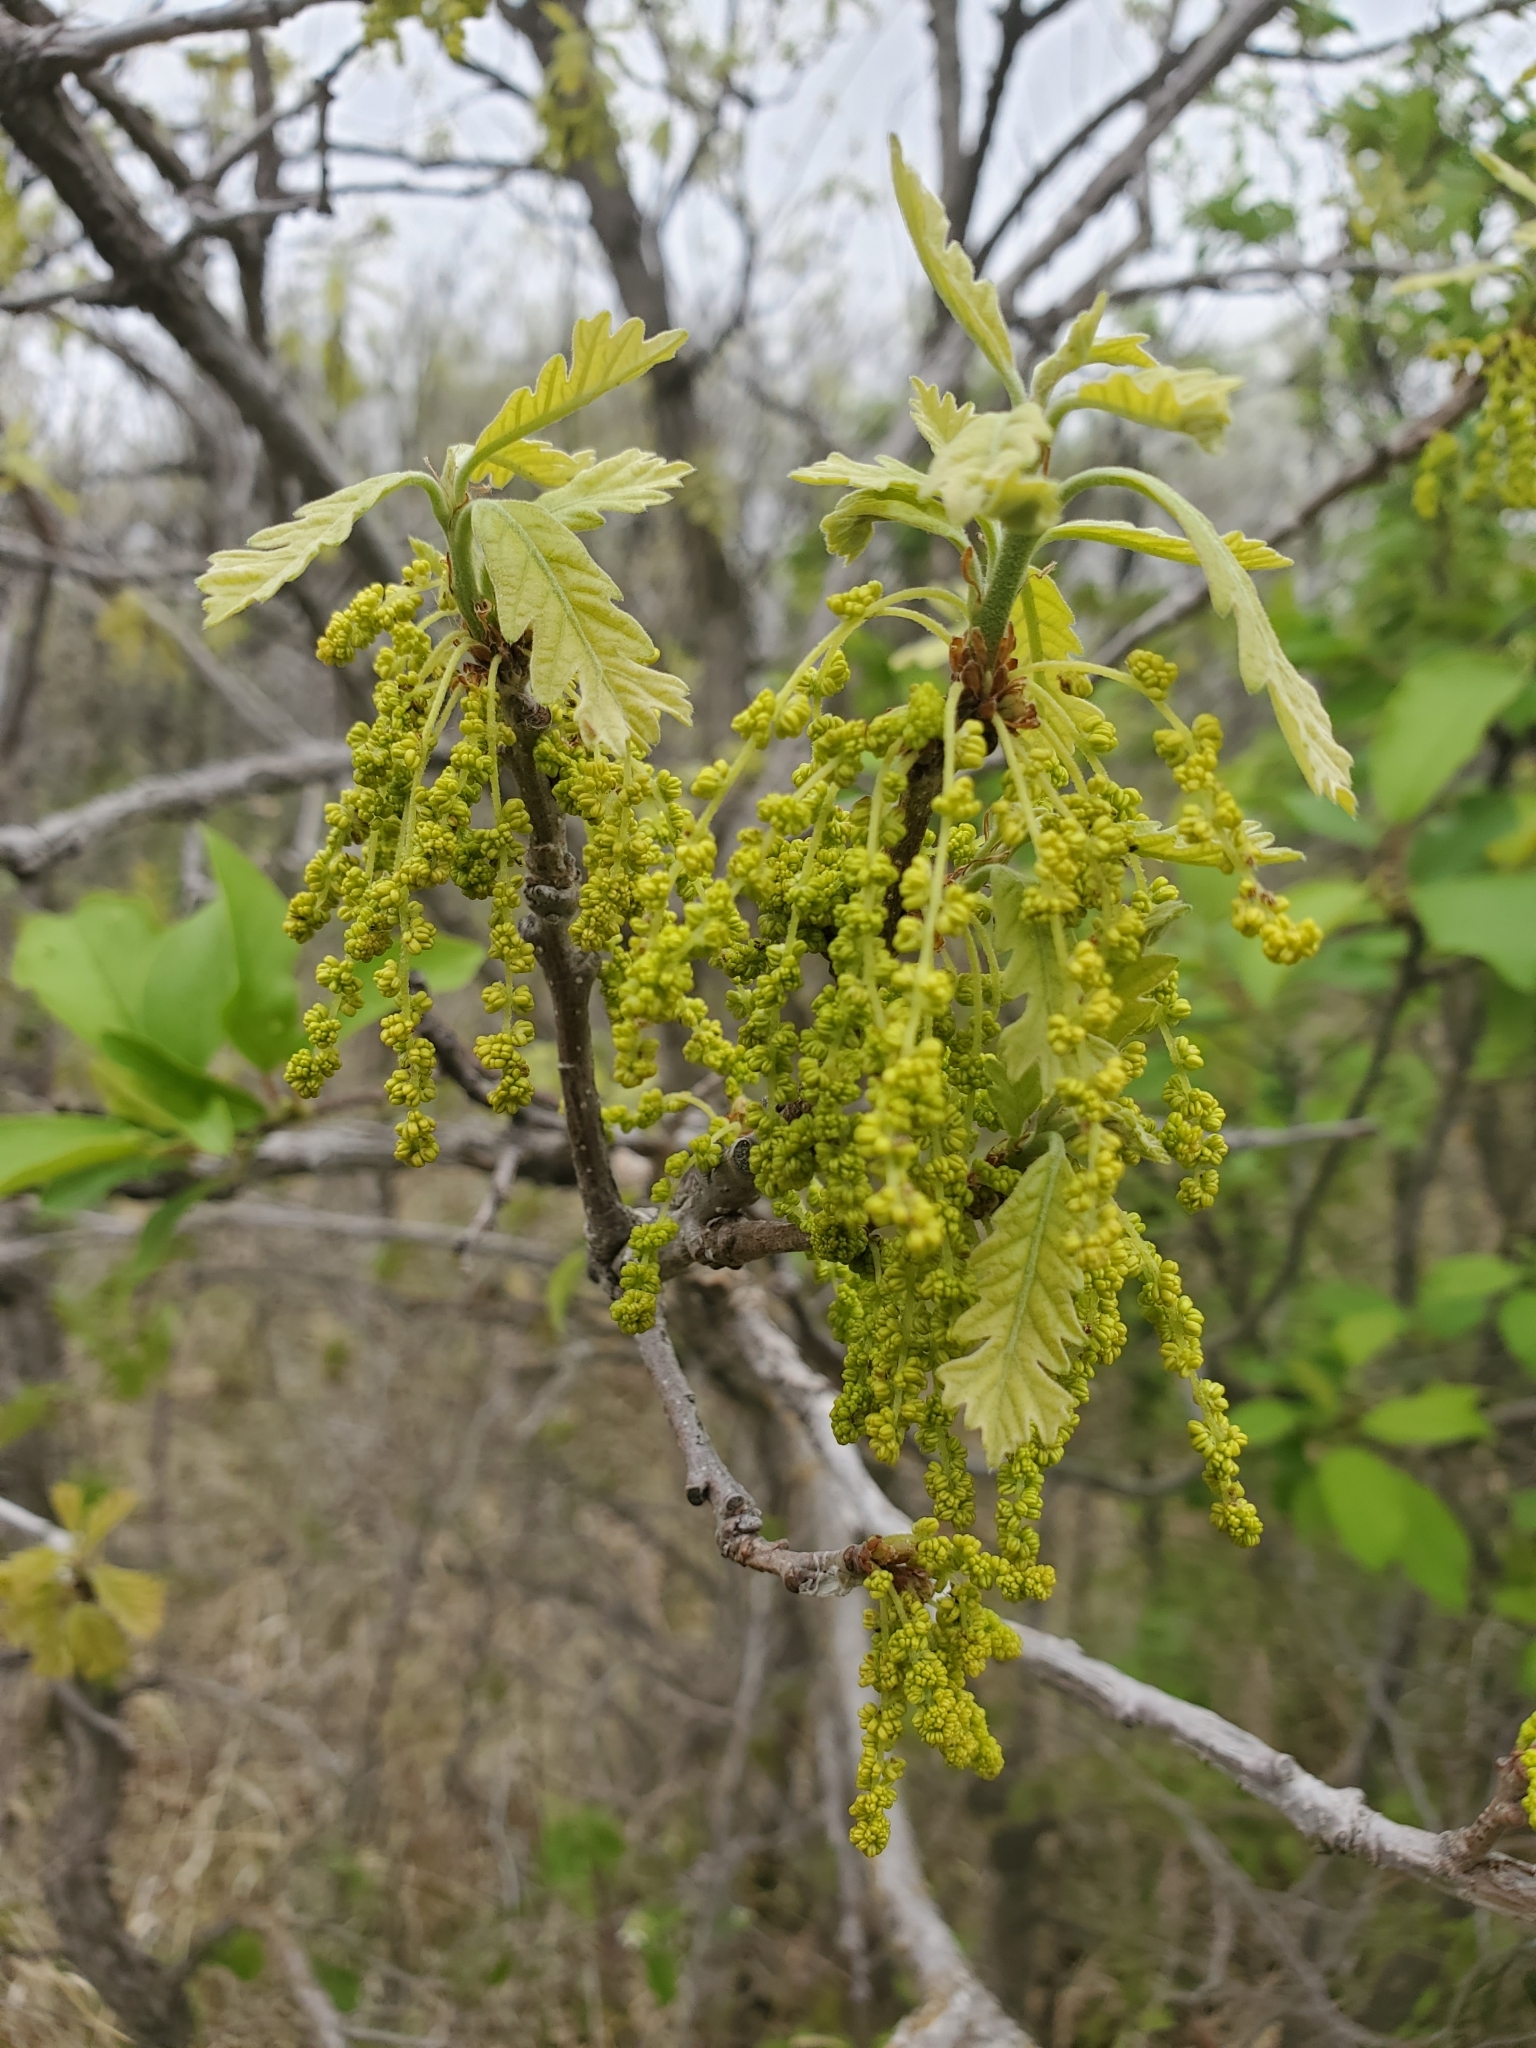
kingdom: Plantae
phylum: Tracheophyta
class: Magnoliopsida
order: Fagales
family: Fagaceae
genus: Quercus
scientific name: Quercus macrocarpa
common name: Bur oak
